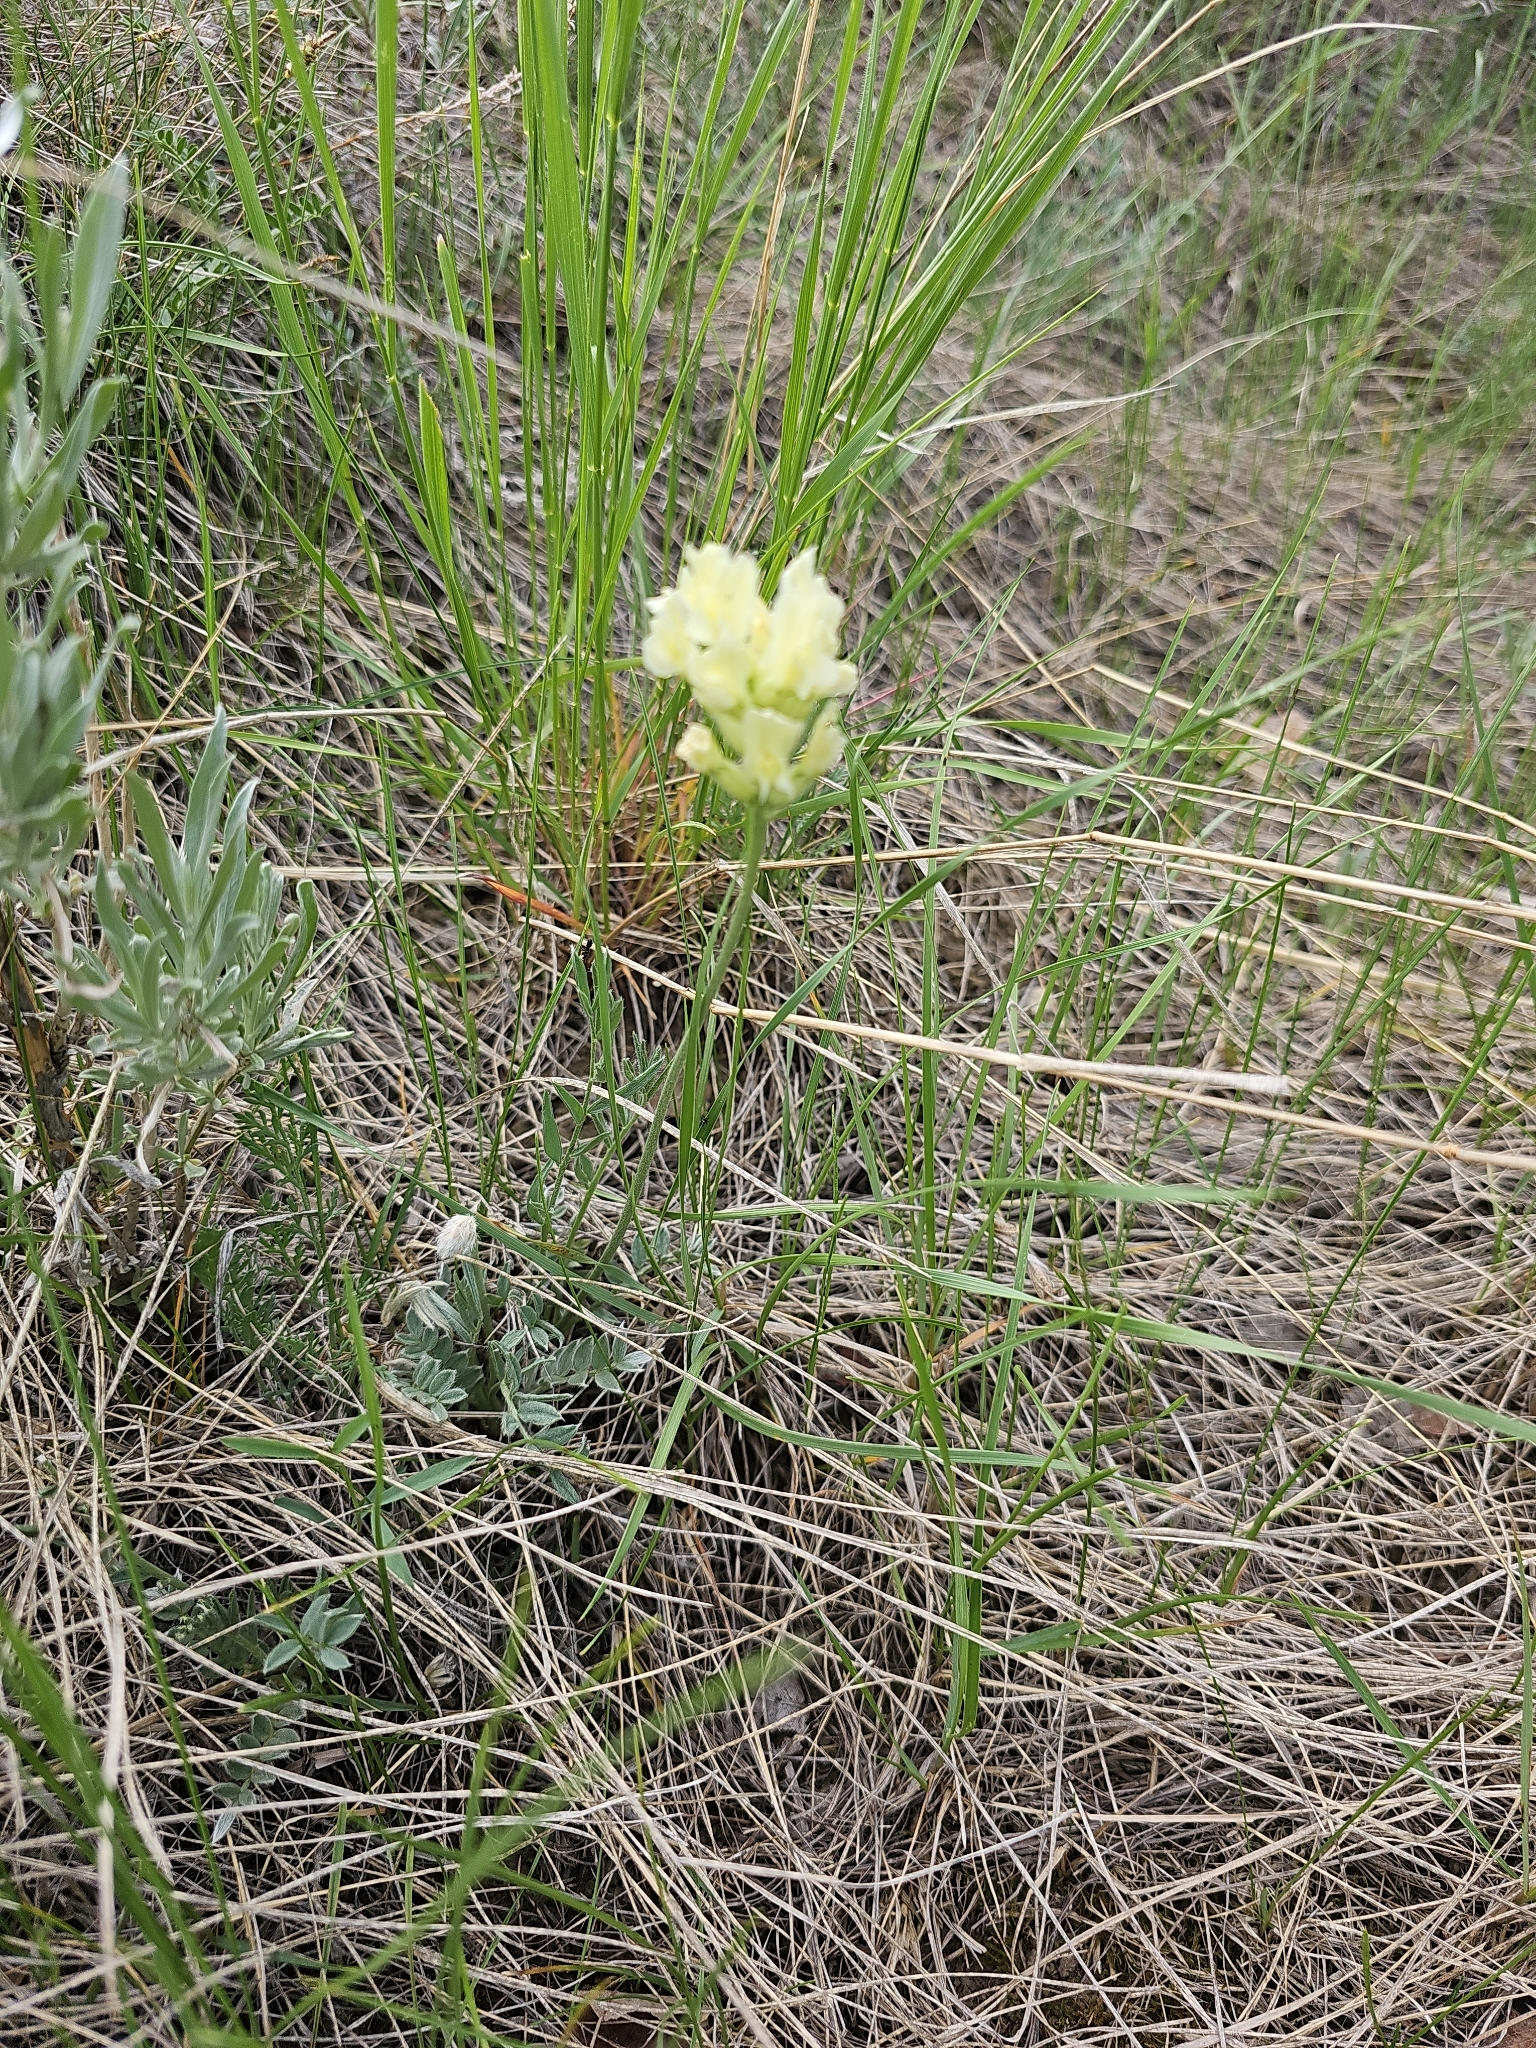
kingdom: Plantae
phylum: Tracheophyta
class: Magnoliopsida
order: Fabales
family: Fabaceae
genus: Oxytropis
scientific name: Oxytropis sericea
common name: Silky locoweed
